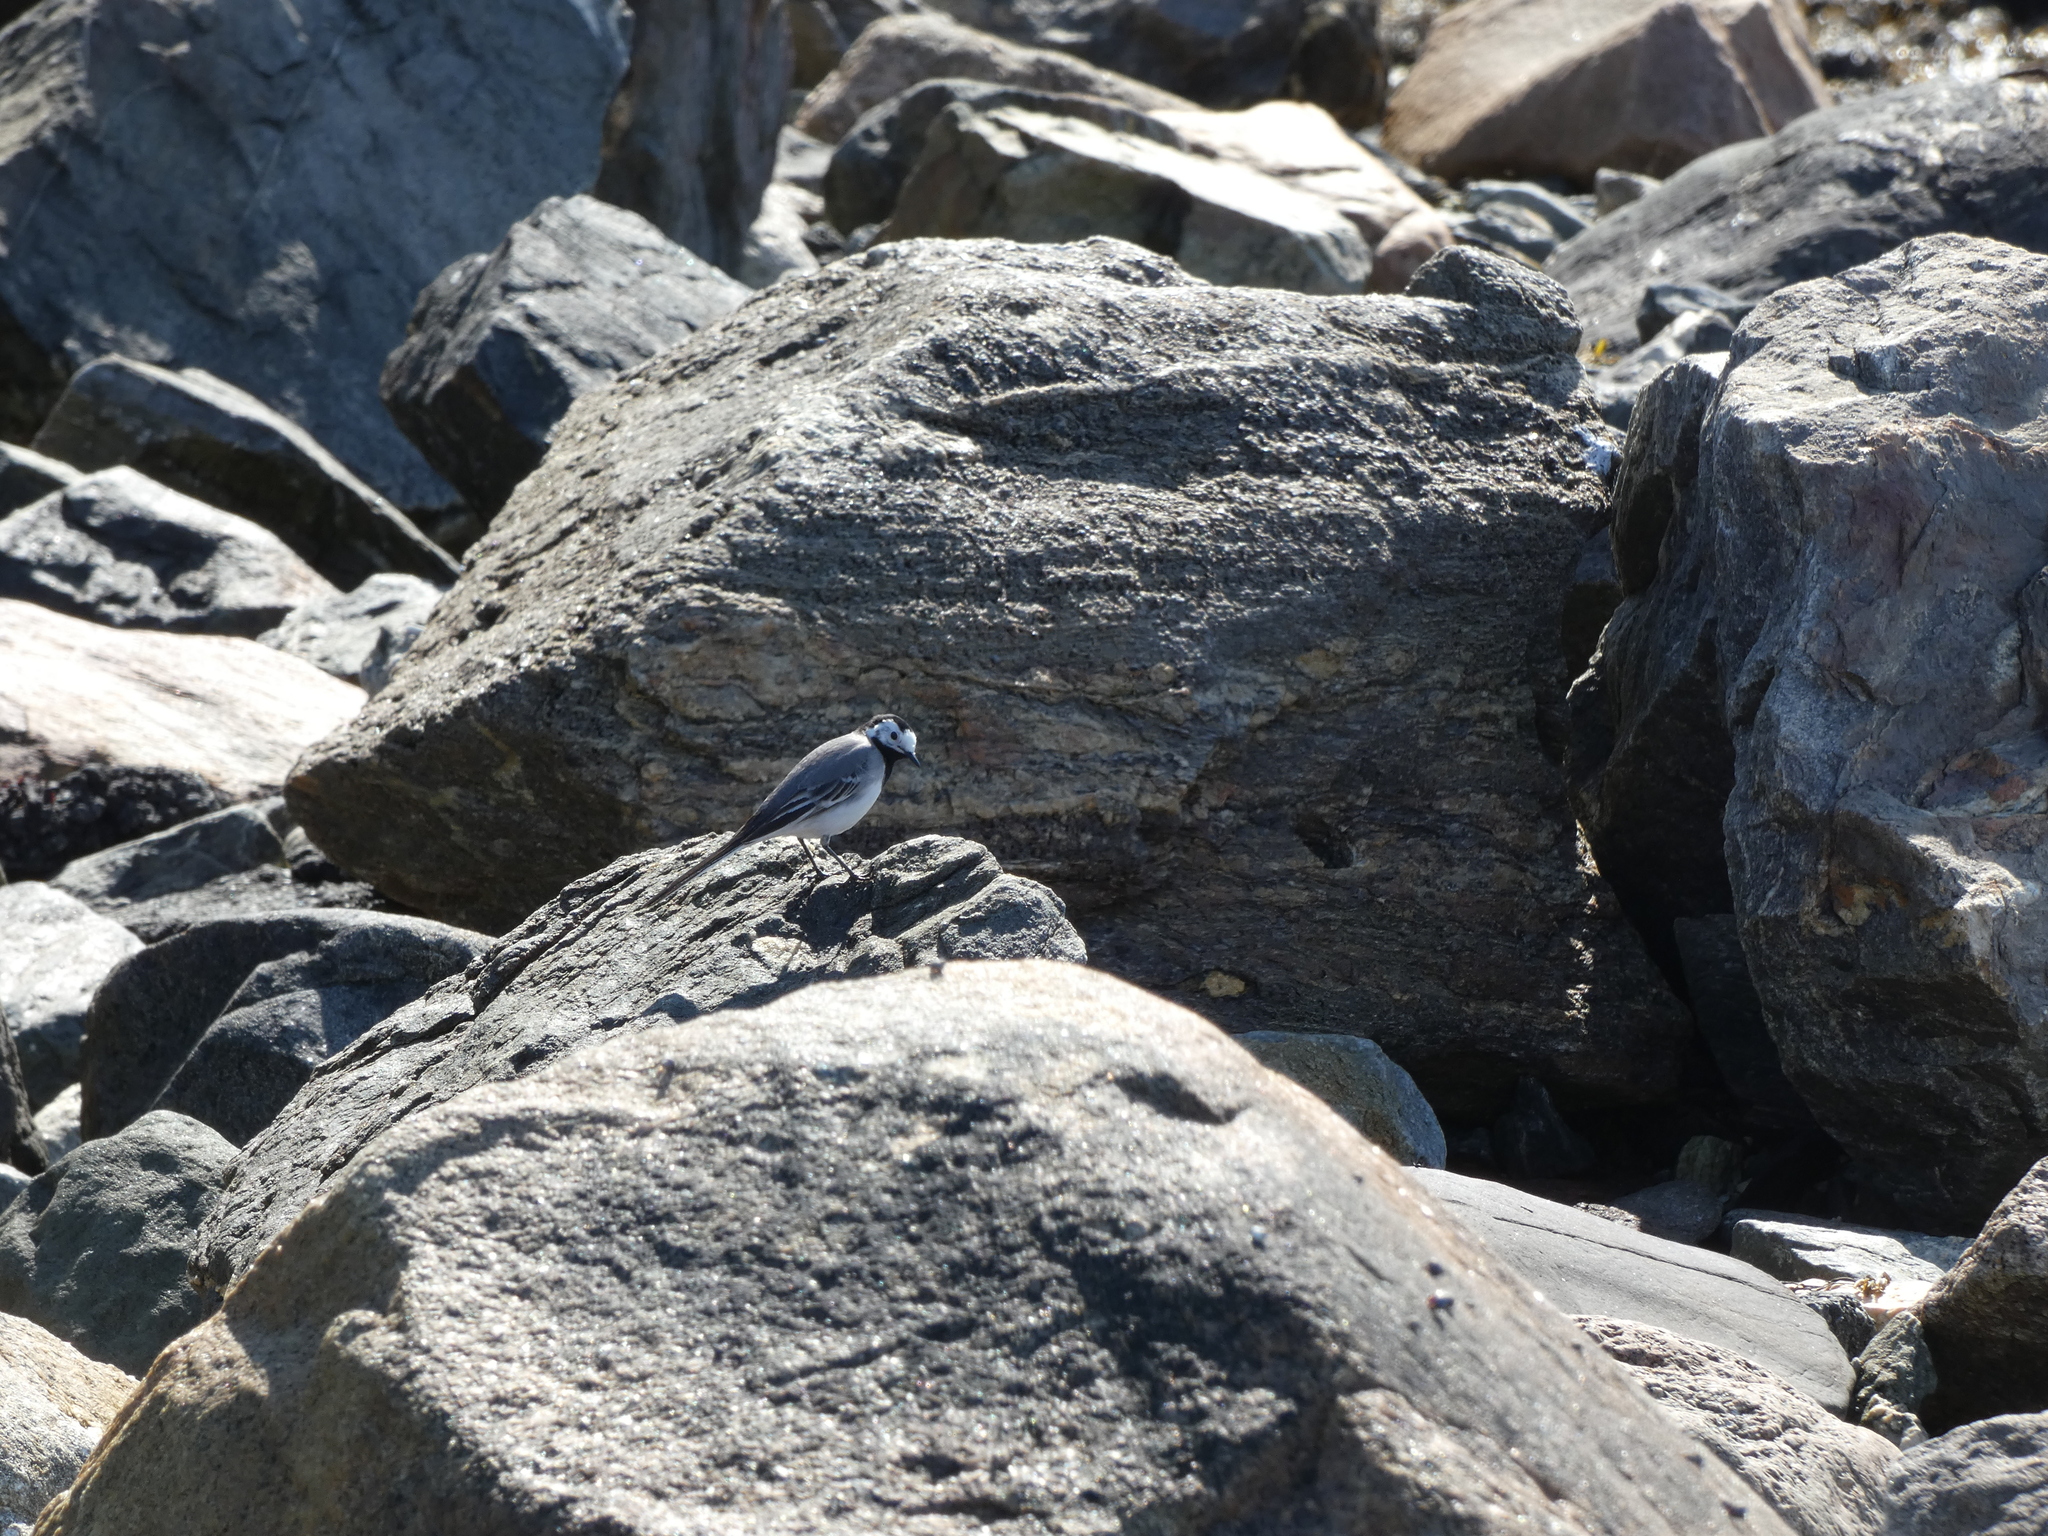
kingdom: Animalia
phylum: Chordata
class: Aves
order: Passeriformes
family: Motacillidae
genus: Motacilla
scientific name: Motacilla alba
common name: White wagtail
